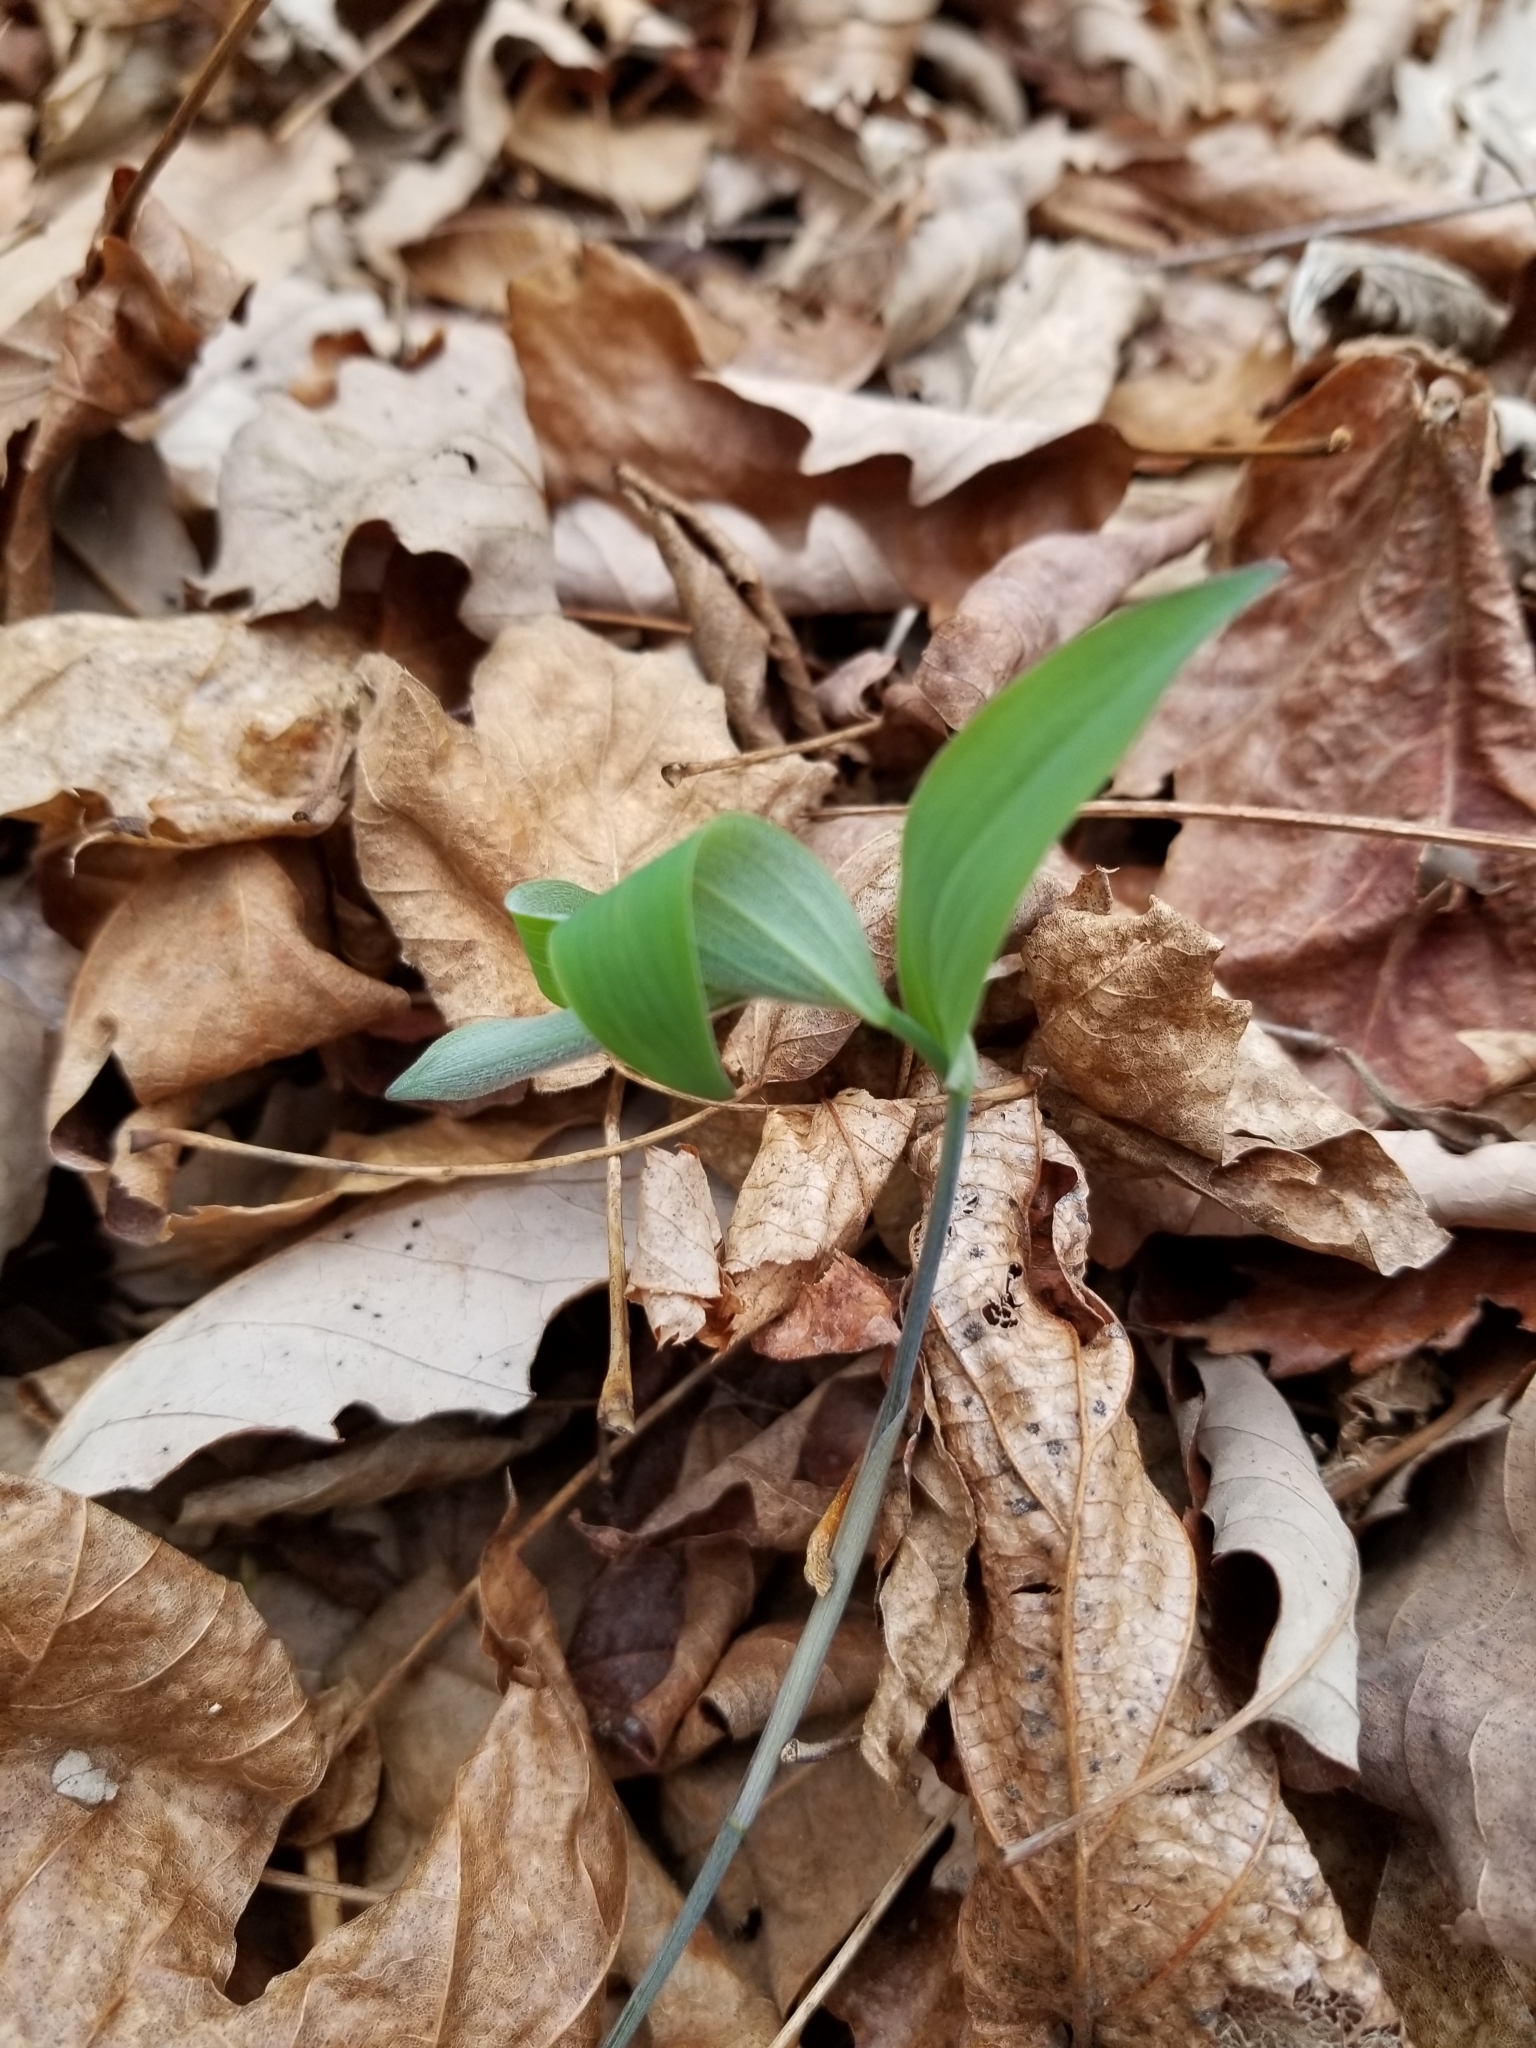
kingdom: Plantae
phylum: Tracheophyta
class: Liliopsida
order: Asparagales
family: Asparagaceae
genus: Polygonatum
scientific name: Polygonatum pubescens
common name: Downy solomon's seal
